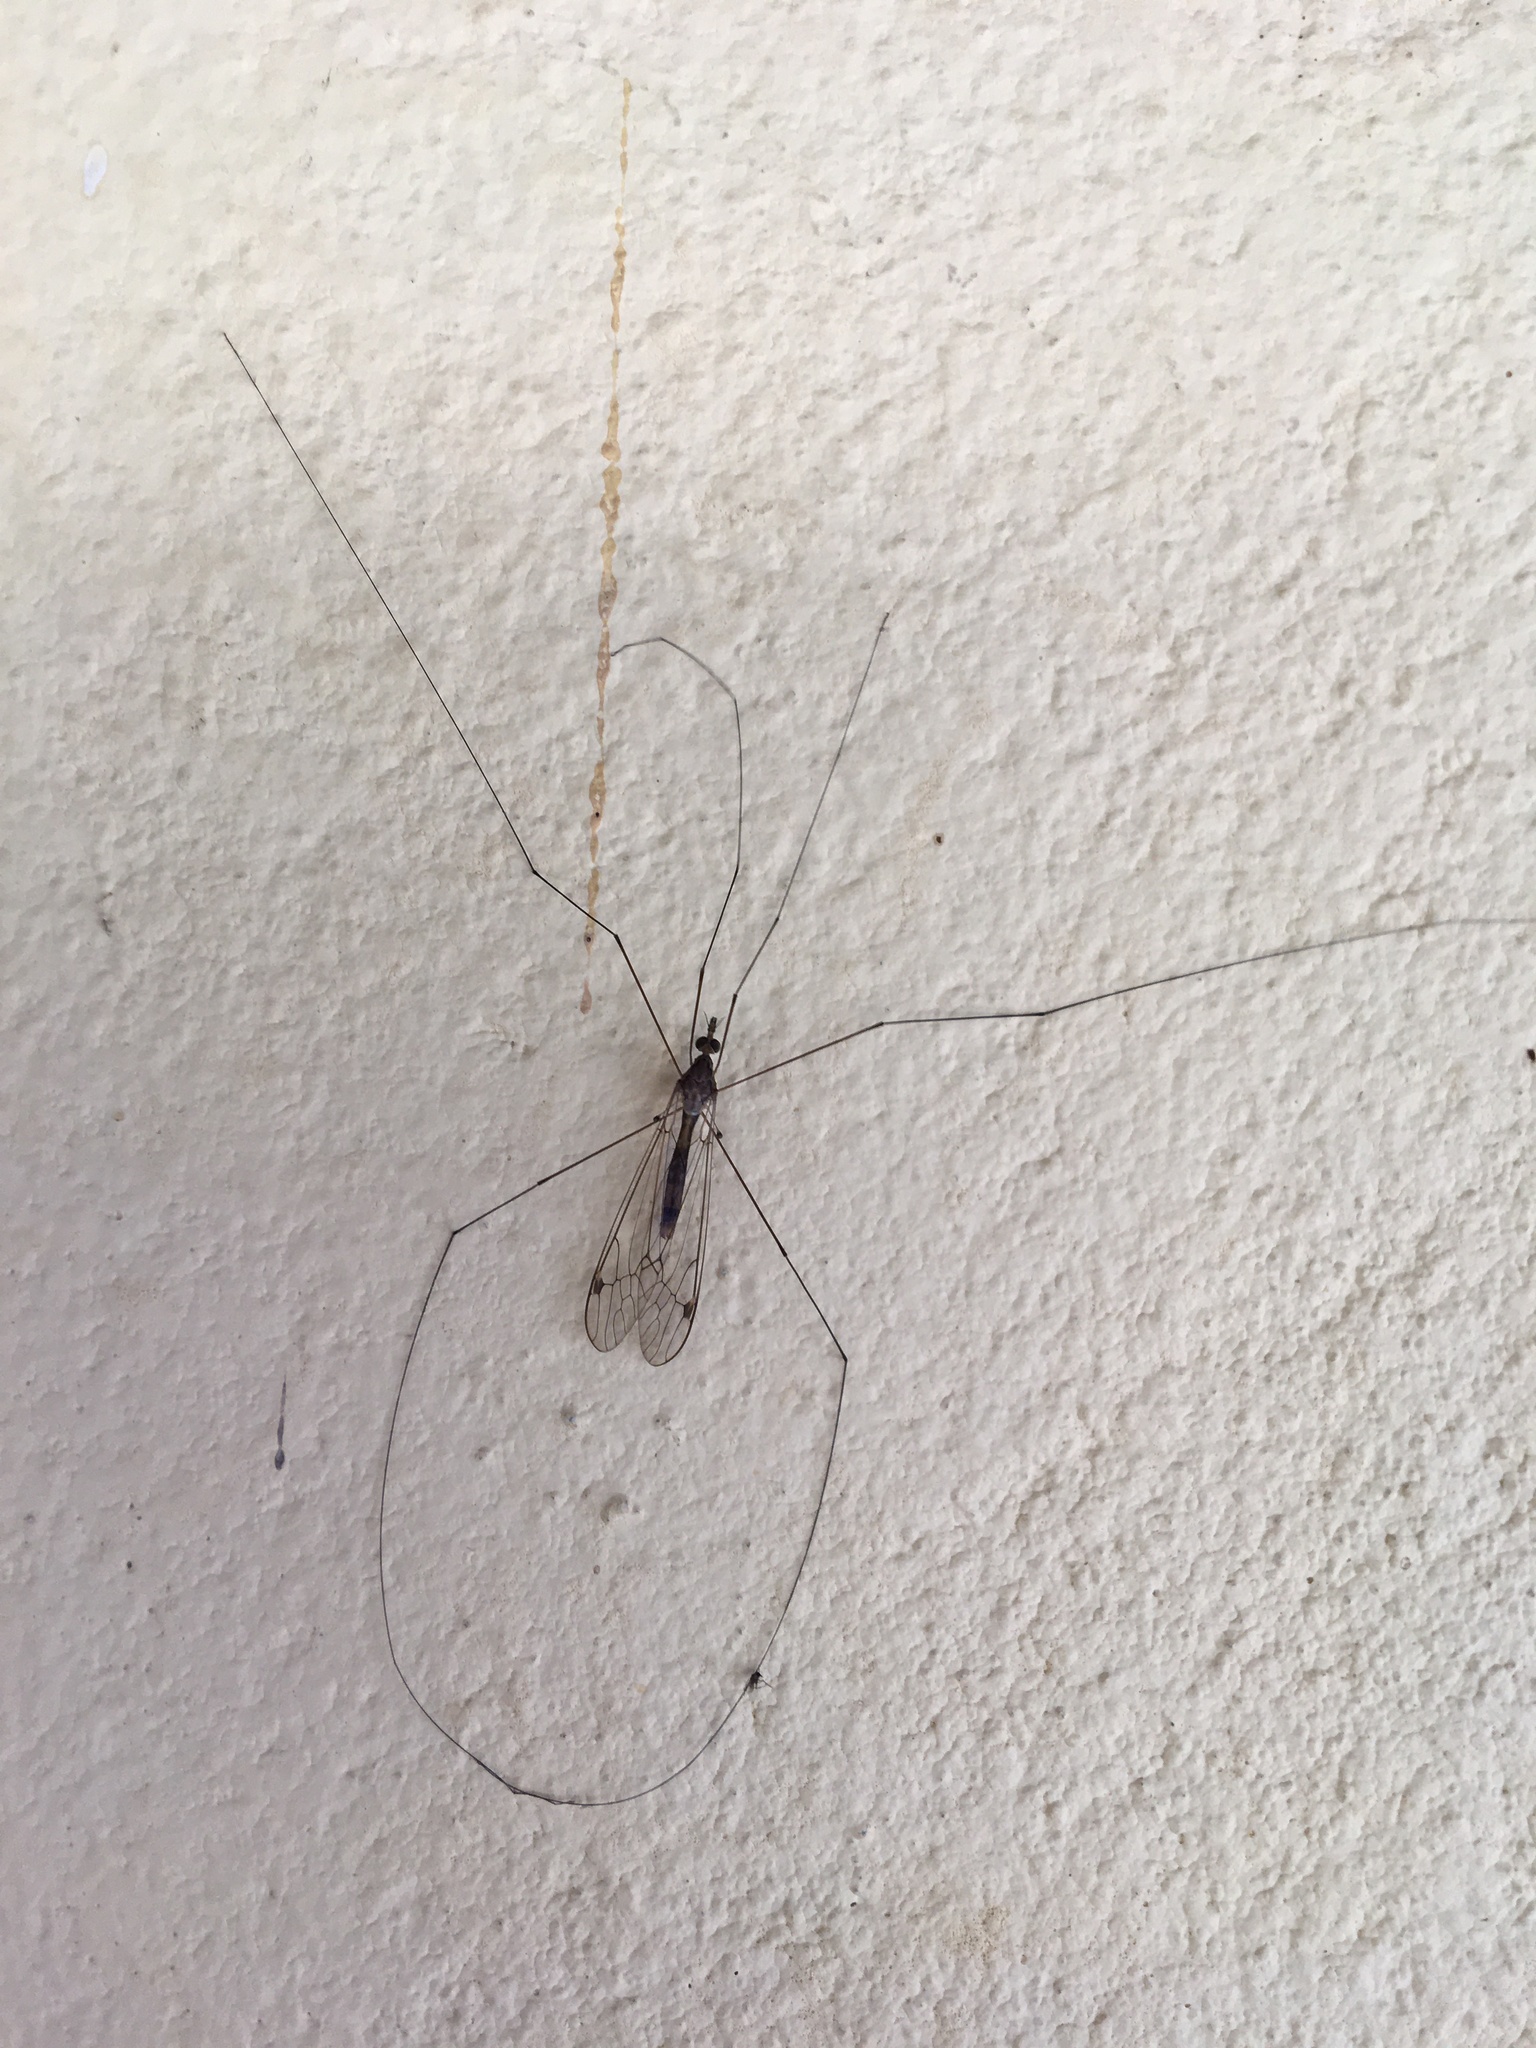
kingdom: Animalia
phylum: Arthropoda
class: Insecta
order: Diptera
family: Tipulidae
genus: Maekistocera
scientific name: Maekistocera longipennis
